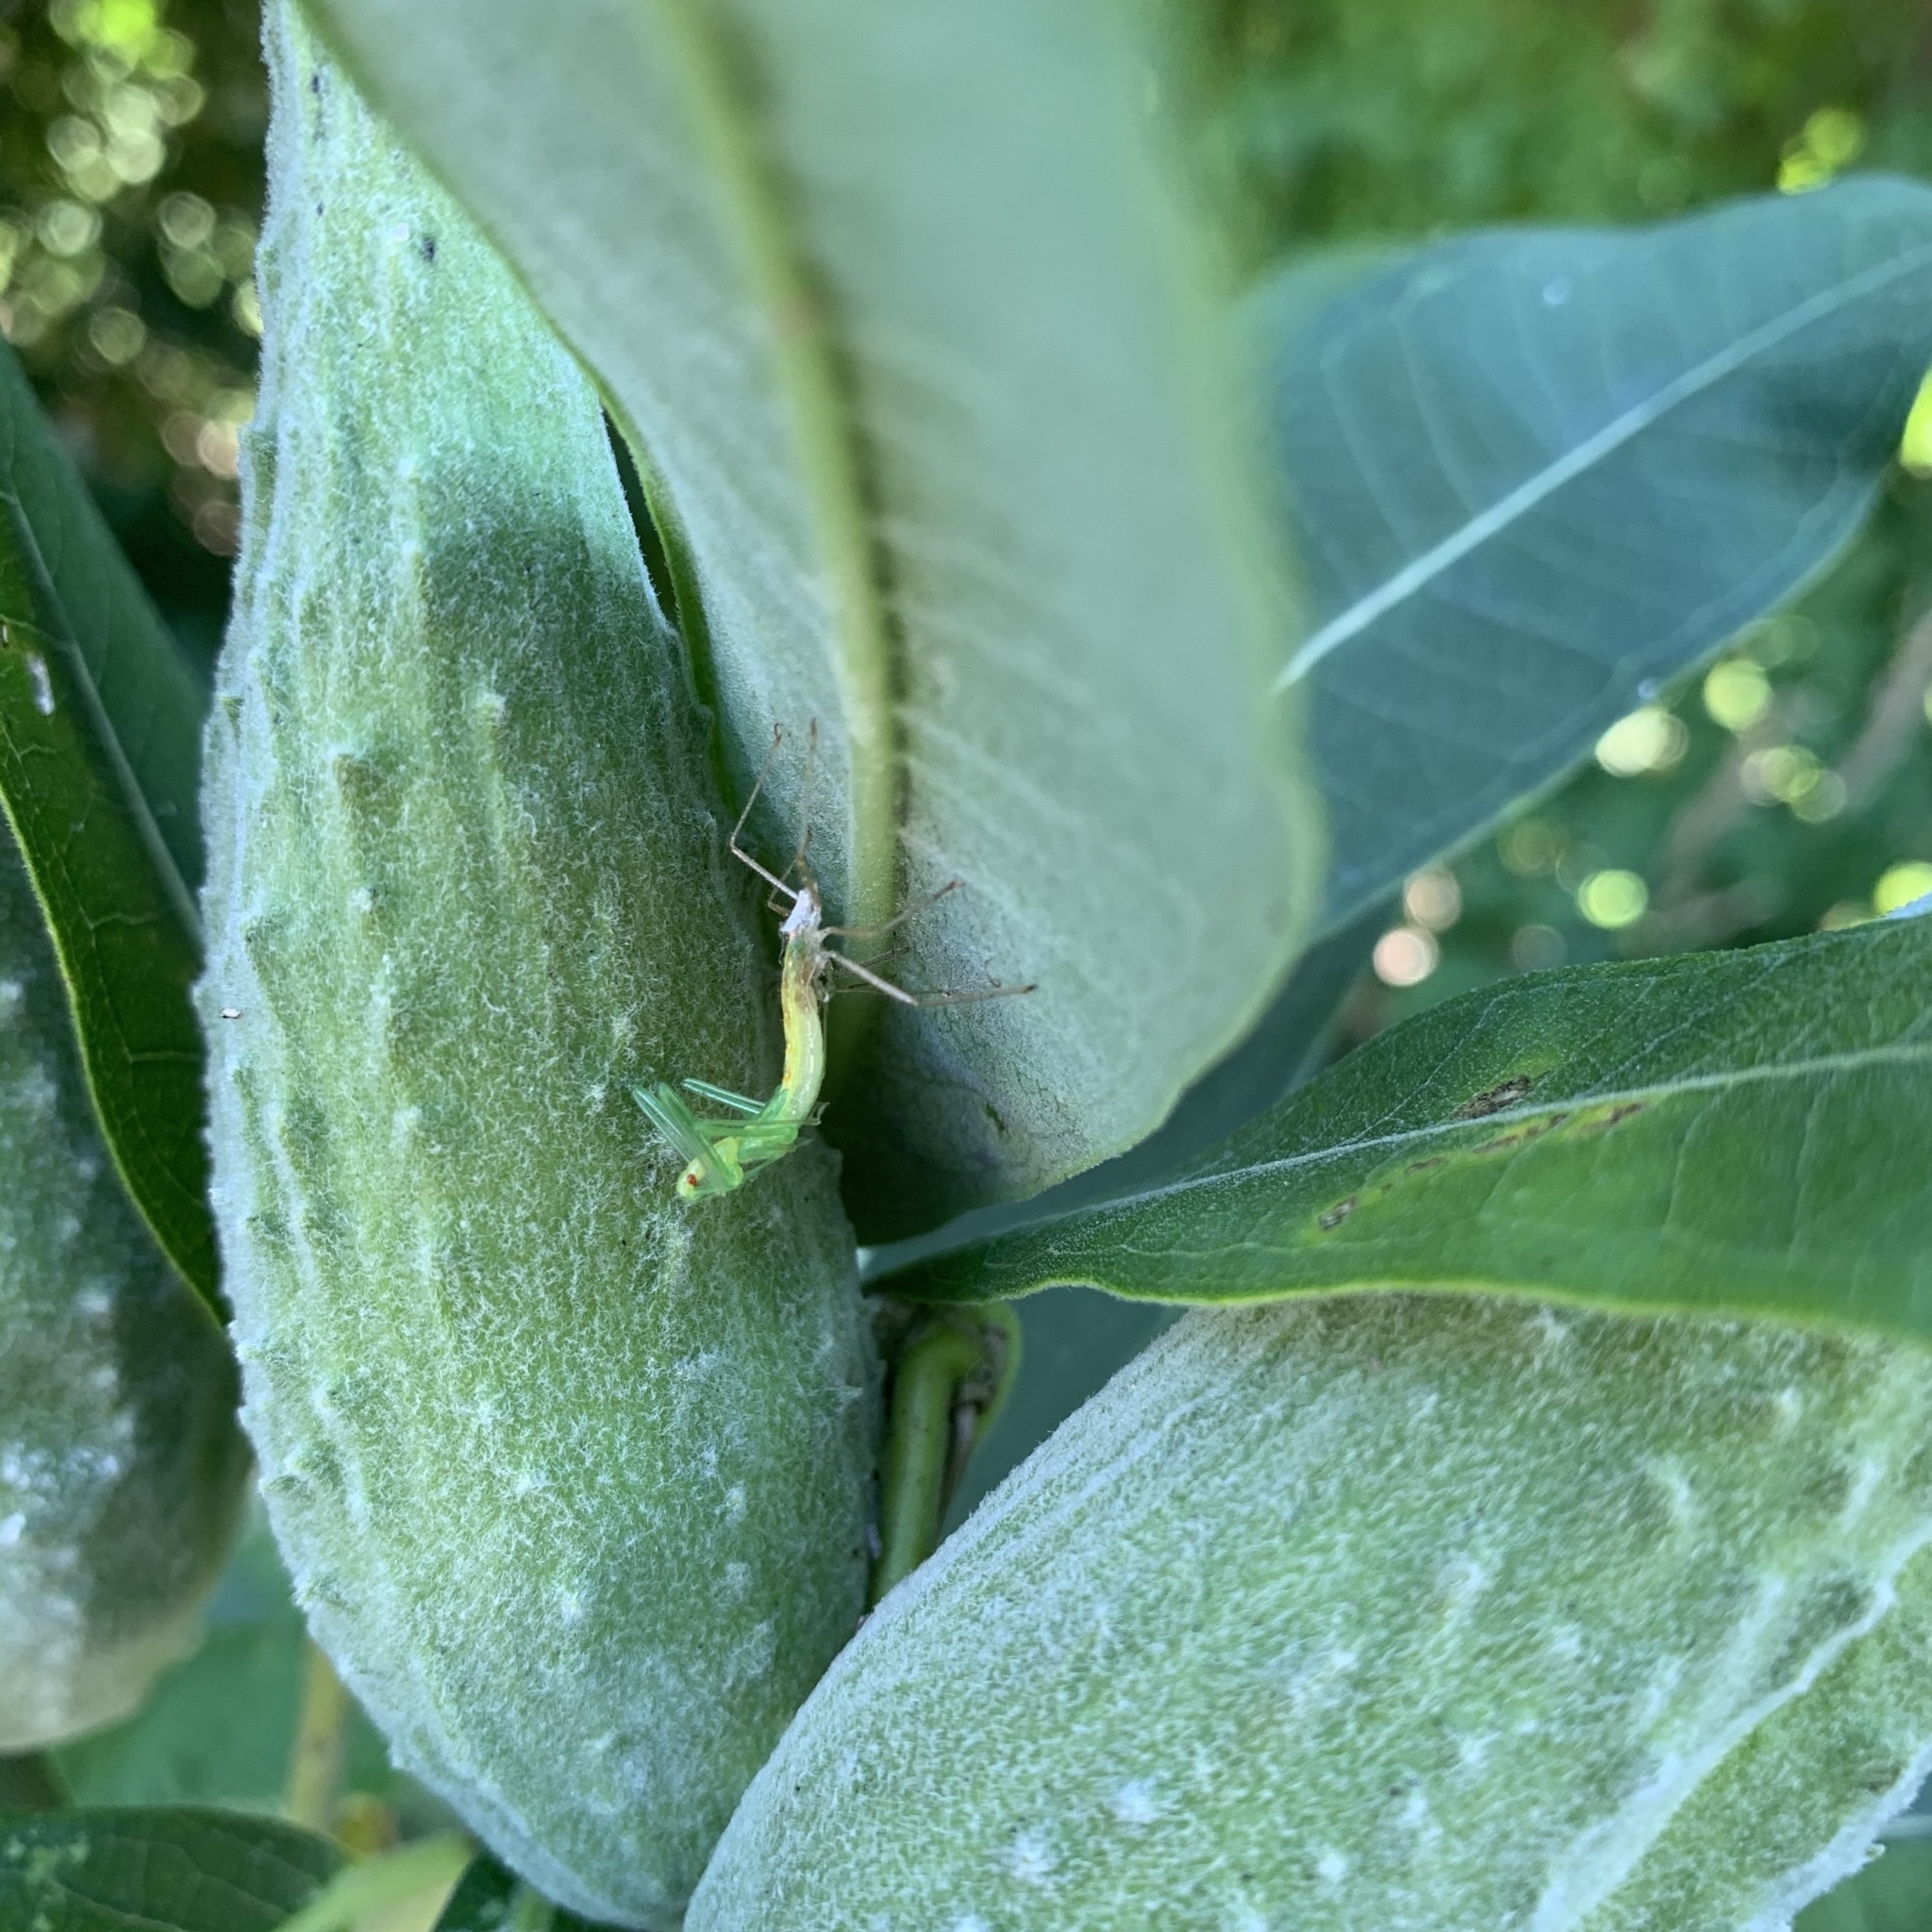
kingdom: Animalia
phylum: Arthropoda
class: Insecta
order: Hemiptera
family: Reduviidae
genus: Zelus
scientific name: Zelus luridus
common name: Pale green assassin bug
